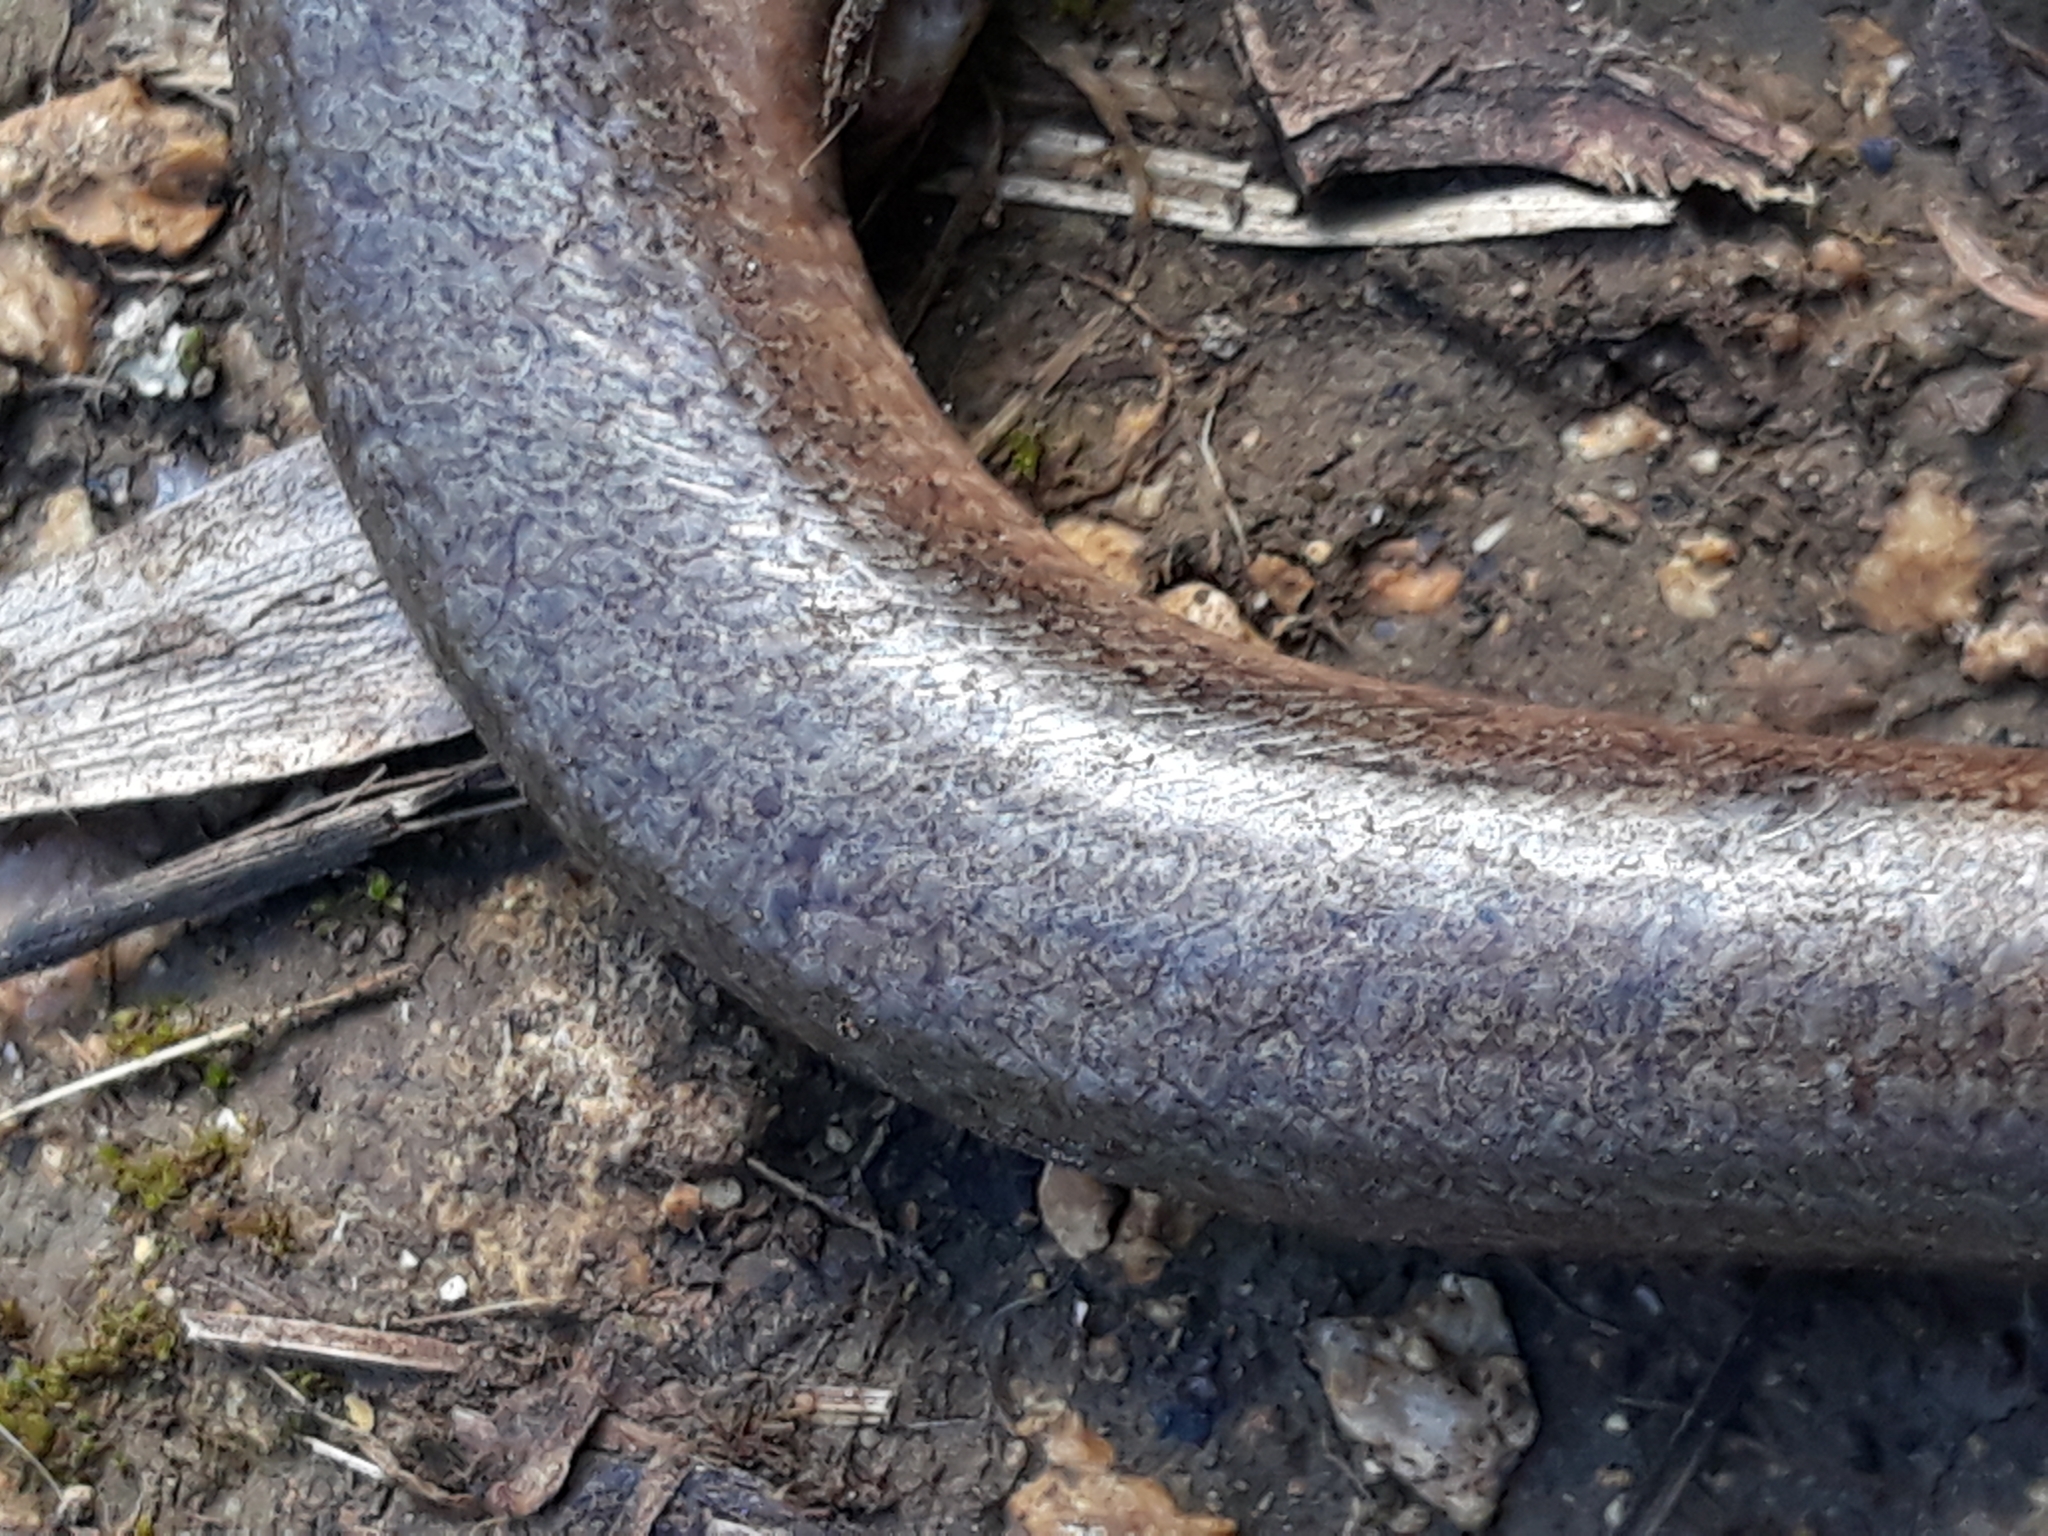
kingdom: Animalia
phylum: Chordata
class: Squamata
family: Anguidae
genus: Anguis
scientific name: Anguis fragilis
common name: Slow worm
